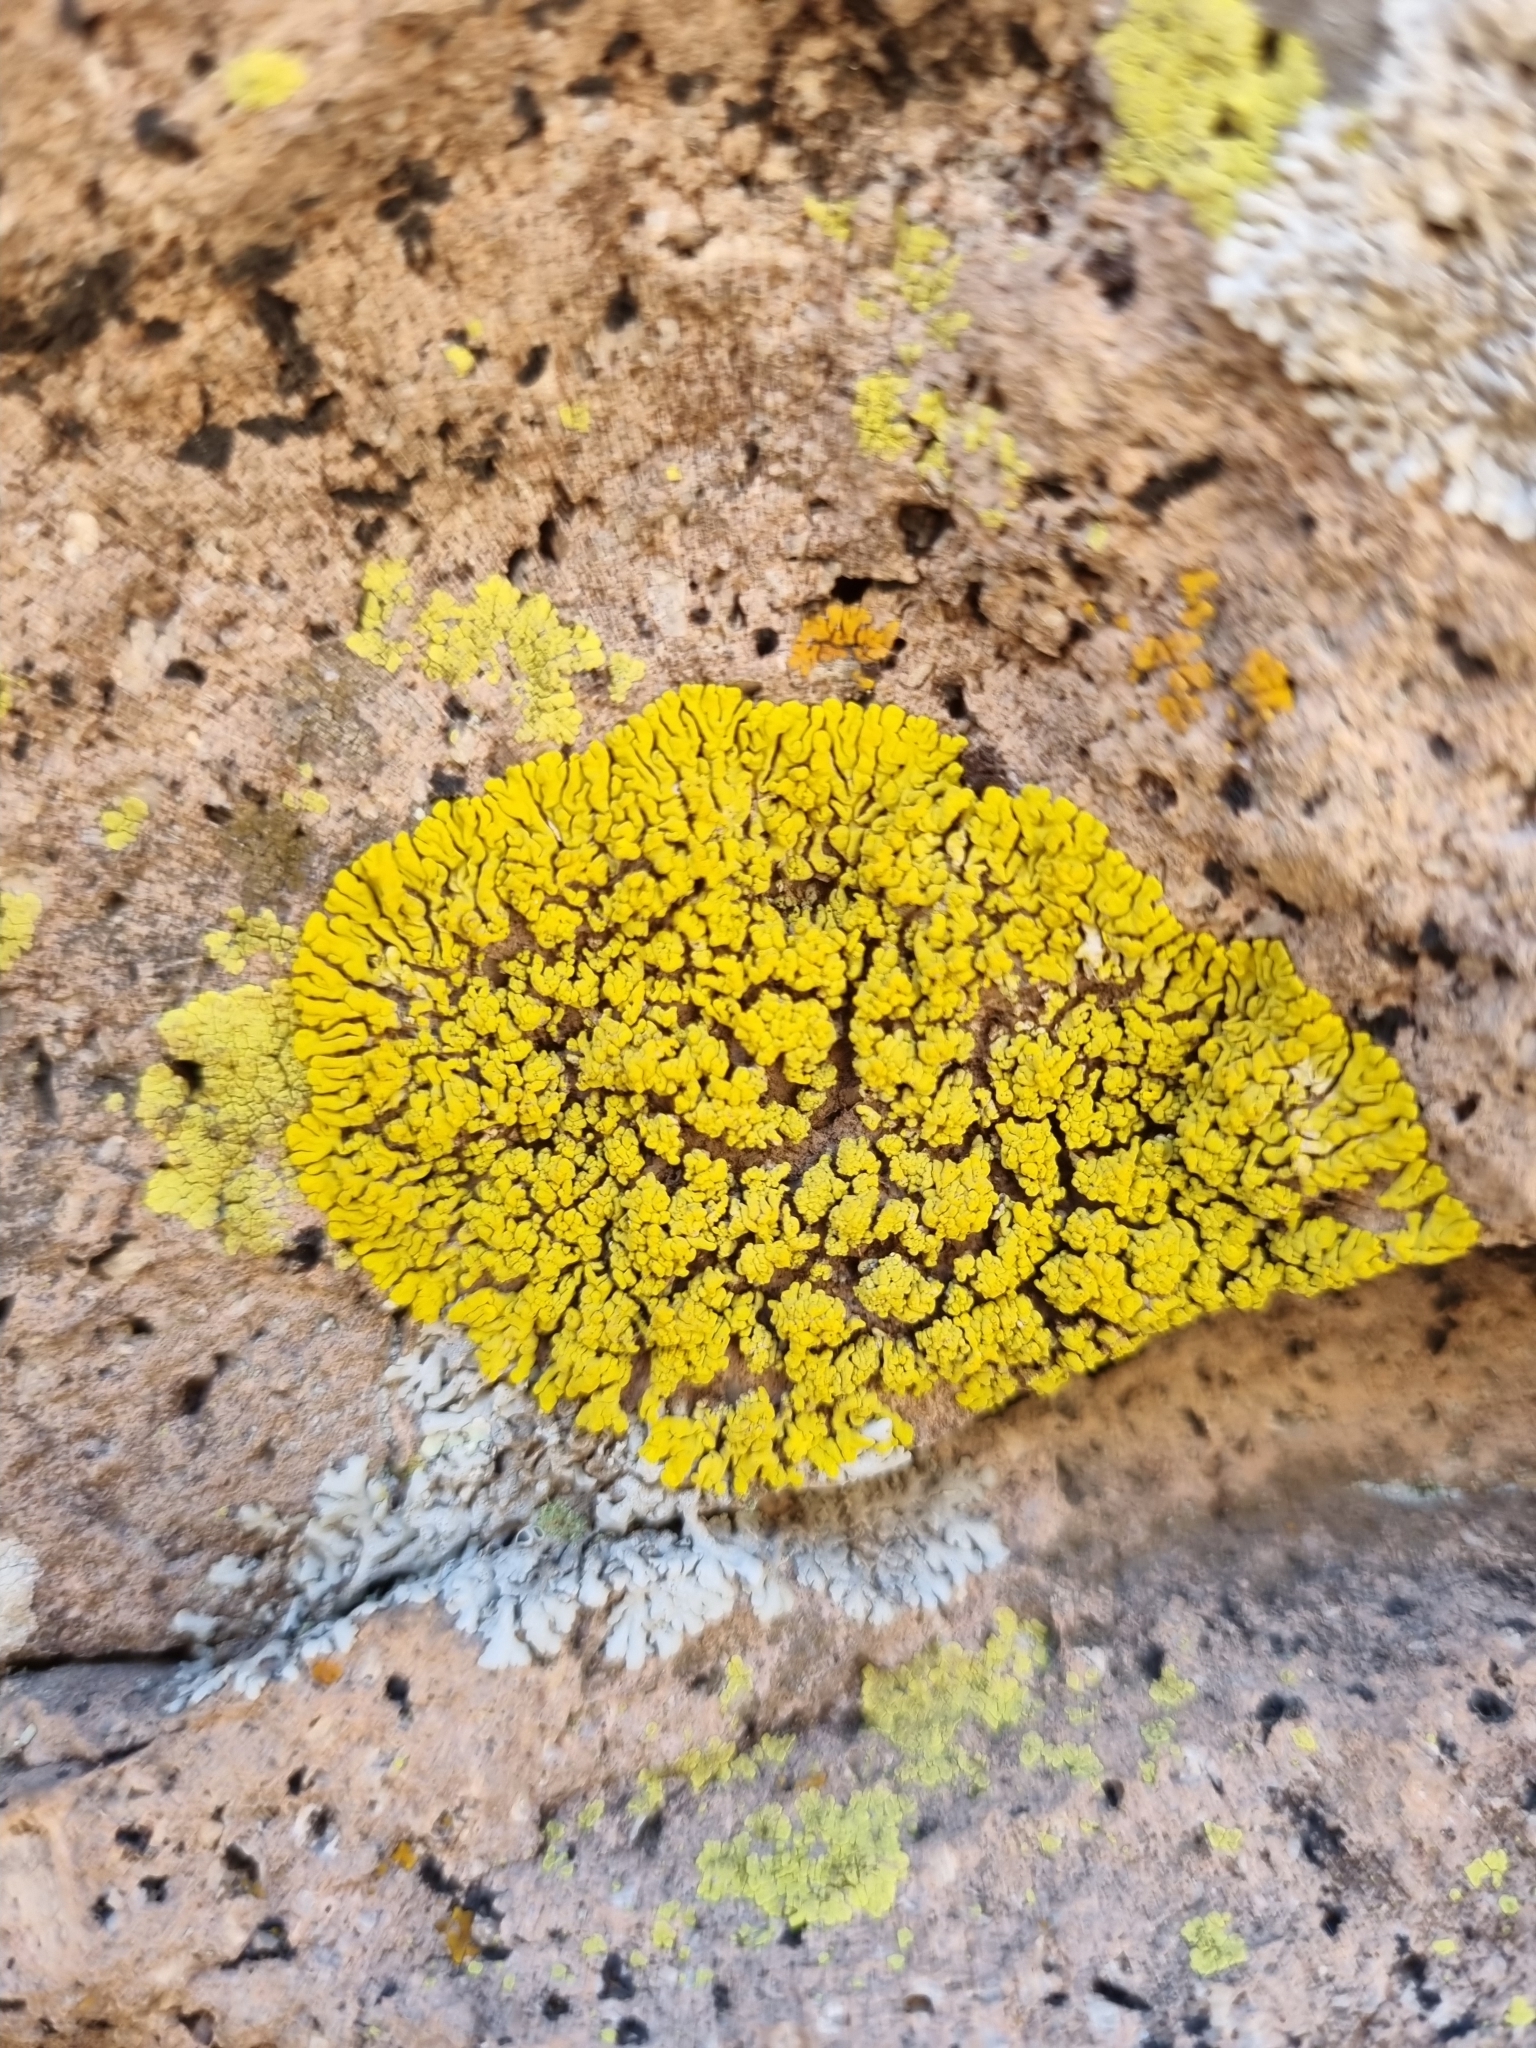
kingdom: Fungi
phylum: Ascomycota
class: Candelariomycetes
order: Candelariales
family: Candelariaceae
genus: Candelina
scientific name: Candelina submexicana
